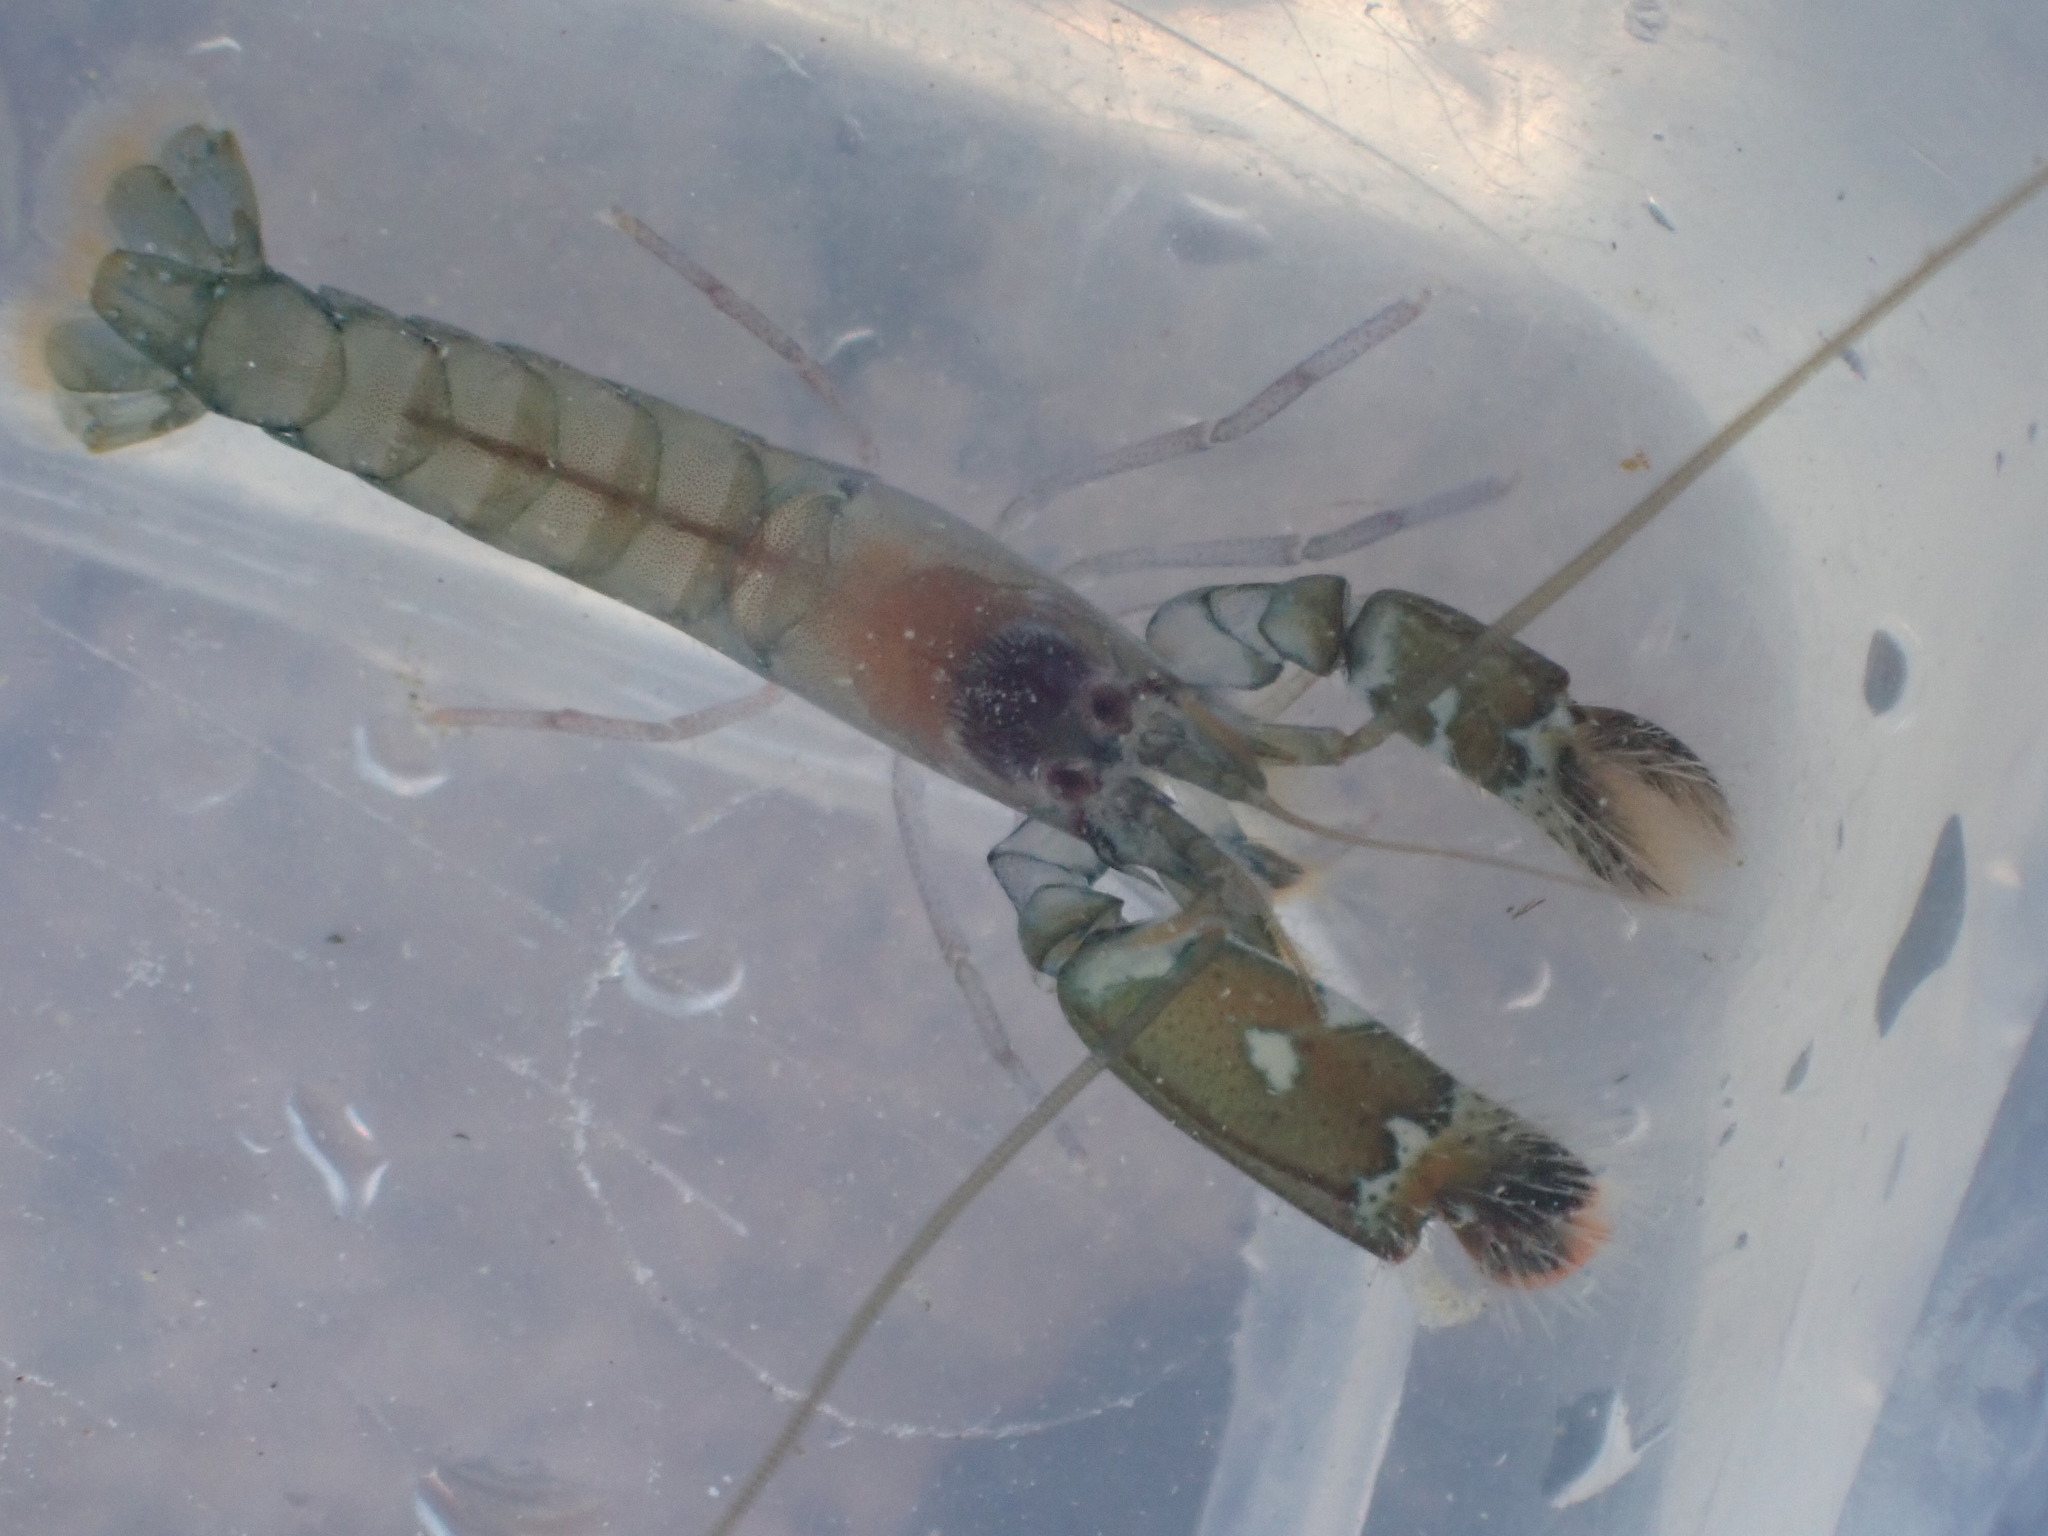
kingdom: Animalia
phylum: Arthropoda
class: Malacostraca
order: Decapoda
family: Alpheidae
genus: Alpheus
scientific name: Alpheus socialis
